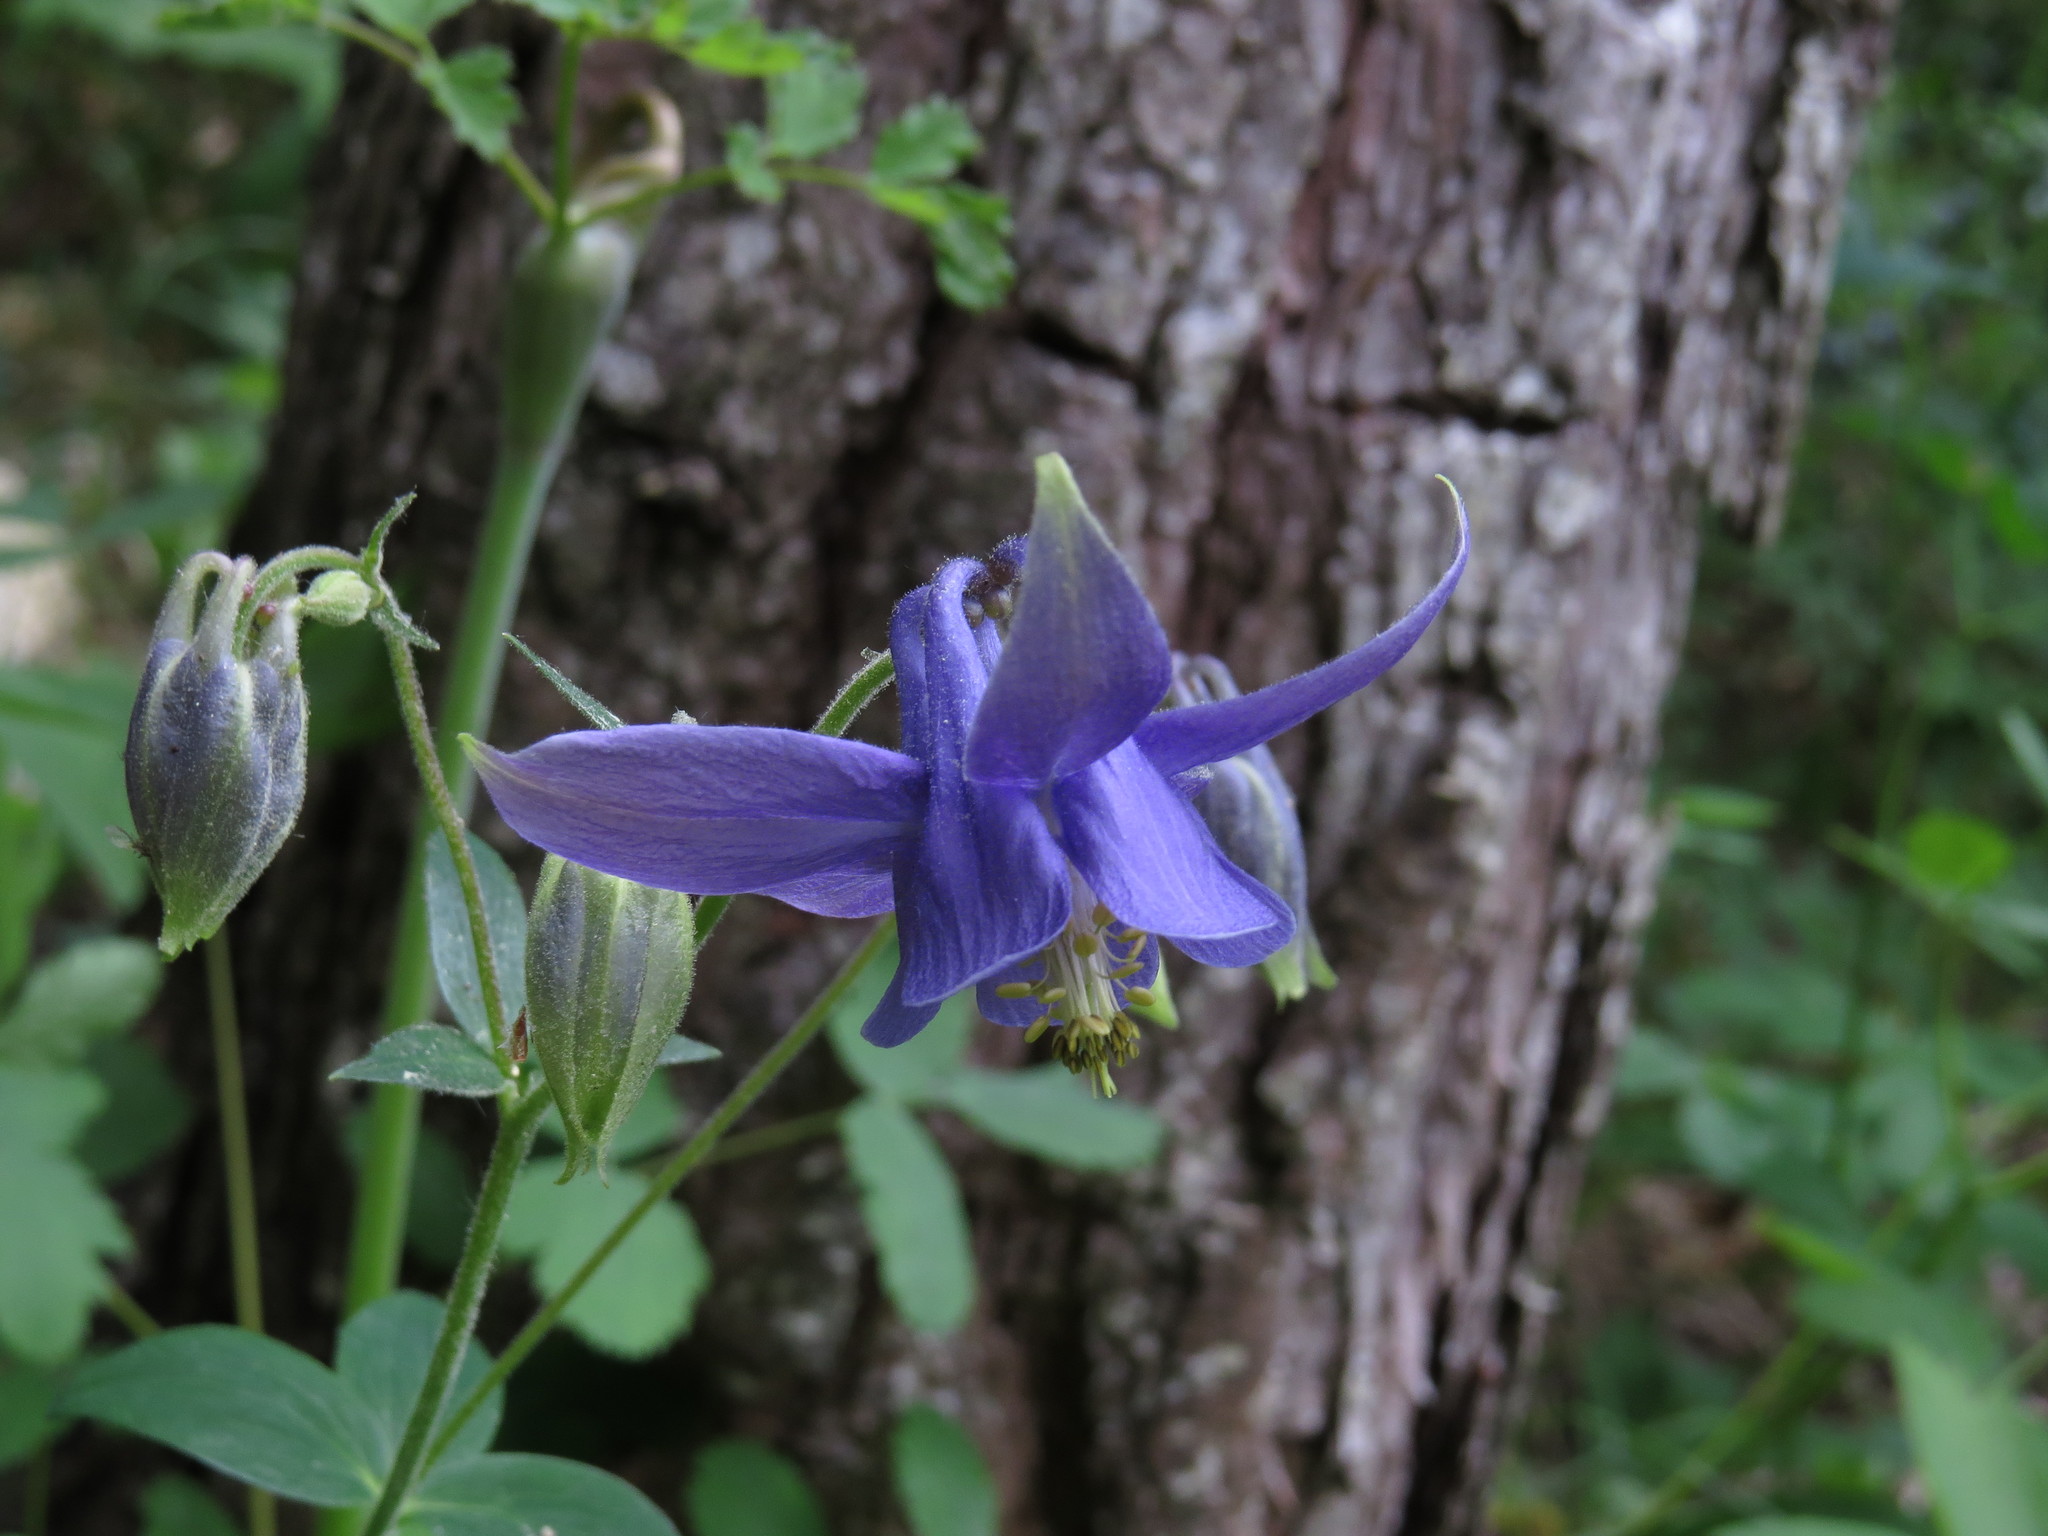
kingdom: Plantae
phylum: Tracheophyta
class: Magnoliopsida
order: Ranunculales
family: Ranunculaceae
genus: Aquilegia
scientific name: Aquilegia vulgaris
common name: Columbine
